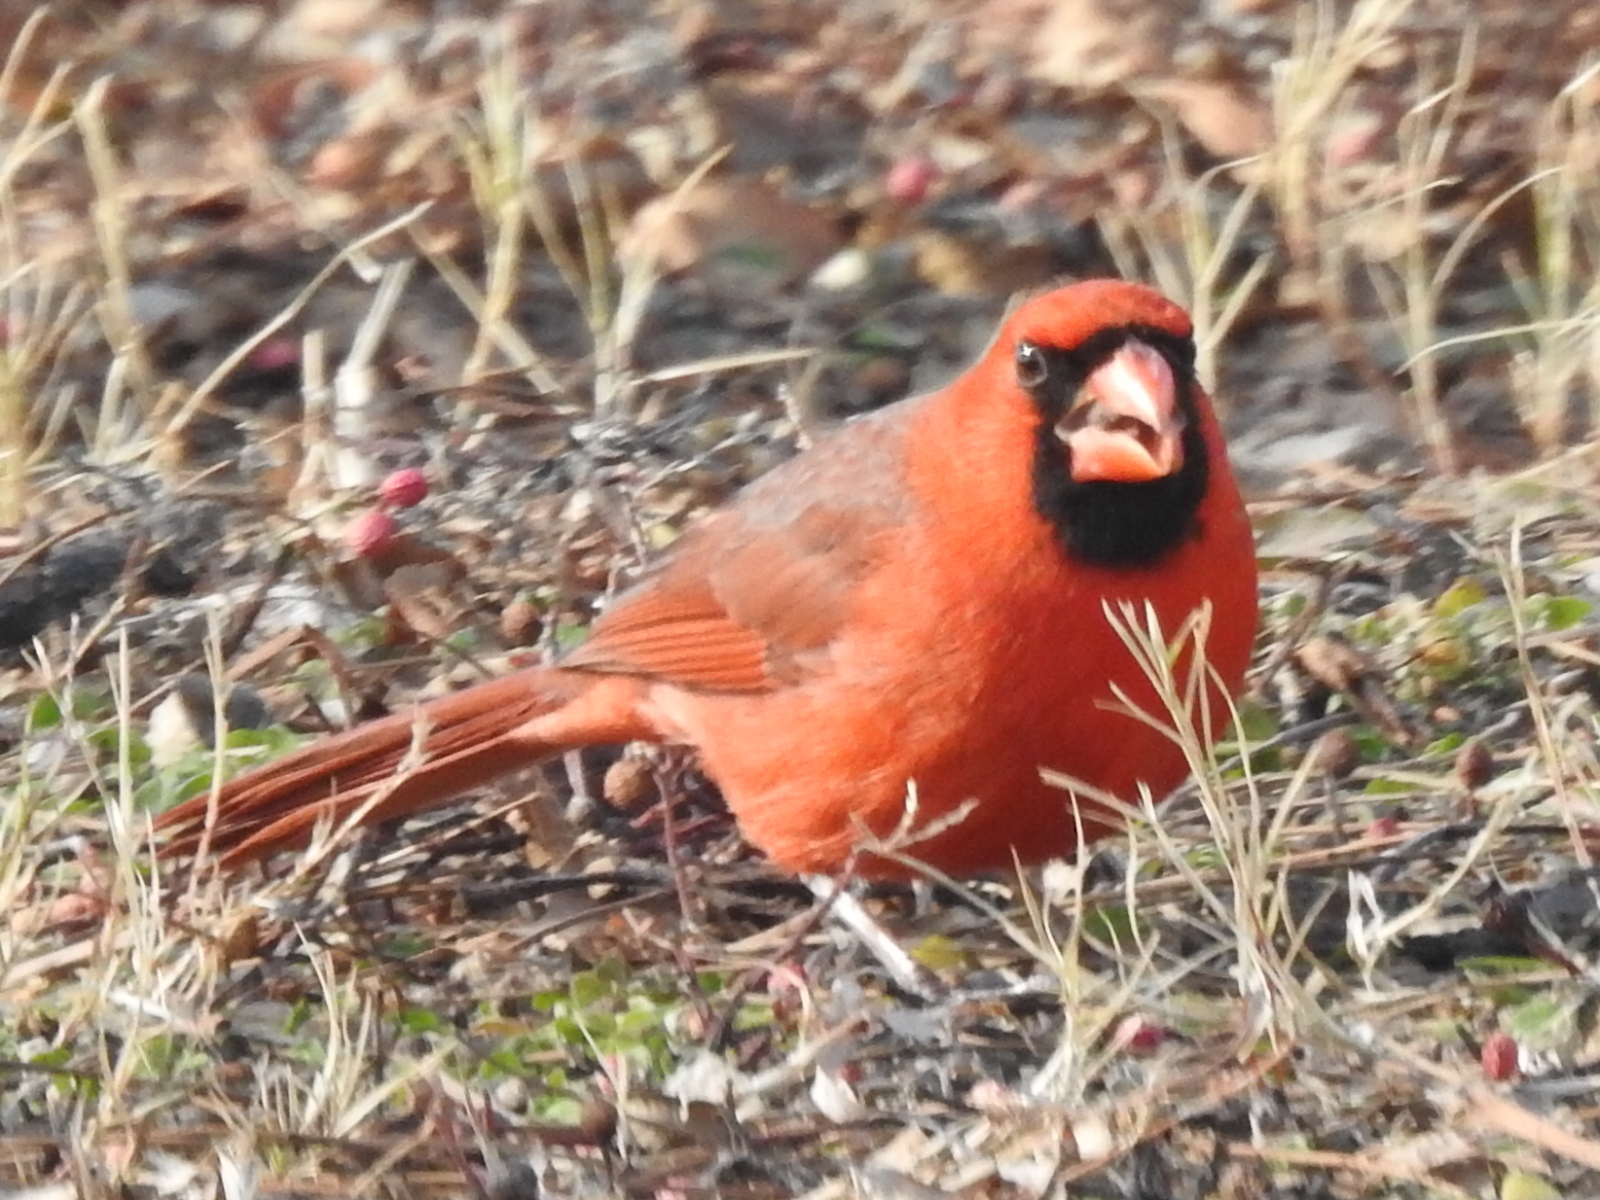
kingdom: Animalia
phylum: Chordata
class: Aves
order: Passeriformes
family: Cardinalidae
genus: Cardinalis
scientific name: Cardinalis cardinalis
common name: Northern cardinal
